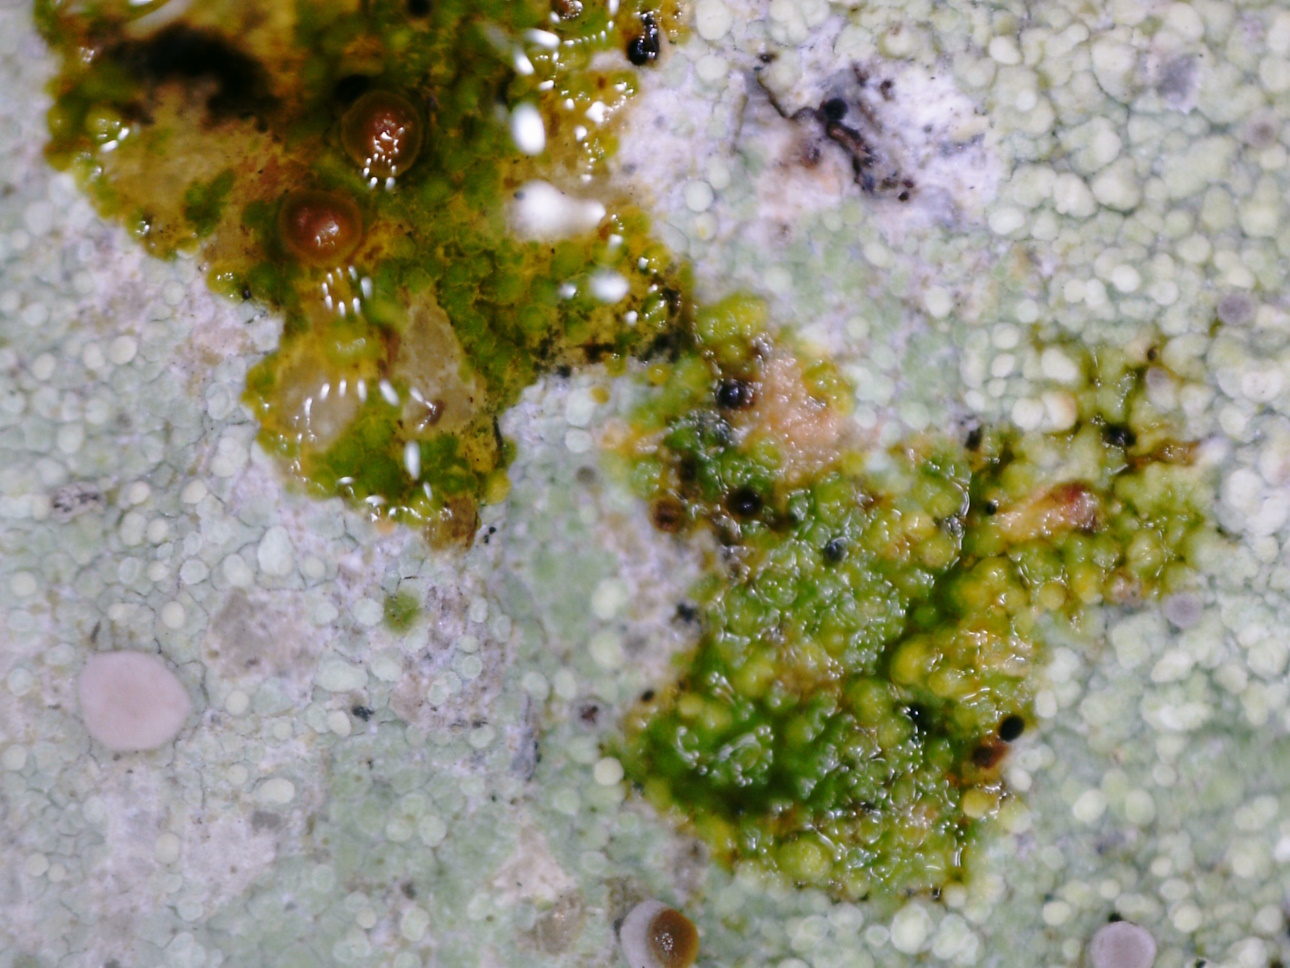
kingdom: Fungi
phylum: Ascomycota
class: Lecanoromycetes
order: Baeomycetales
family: Baeomycetaceae
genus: Baeomyces
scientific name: Baeomyces rufus
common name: Brown beret lichen
